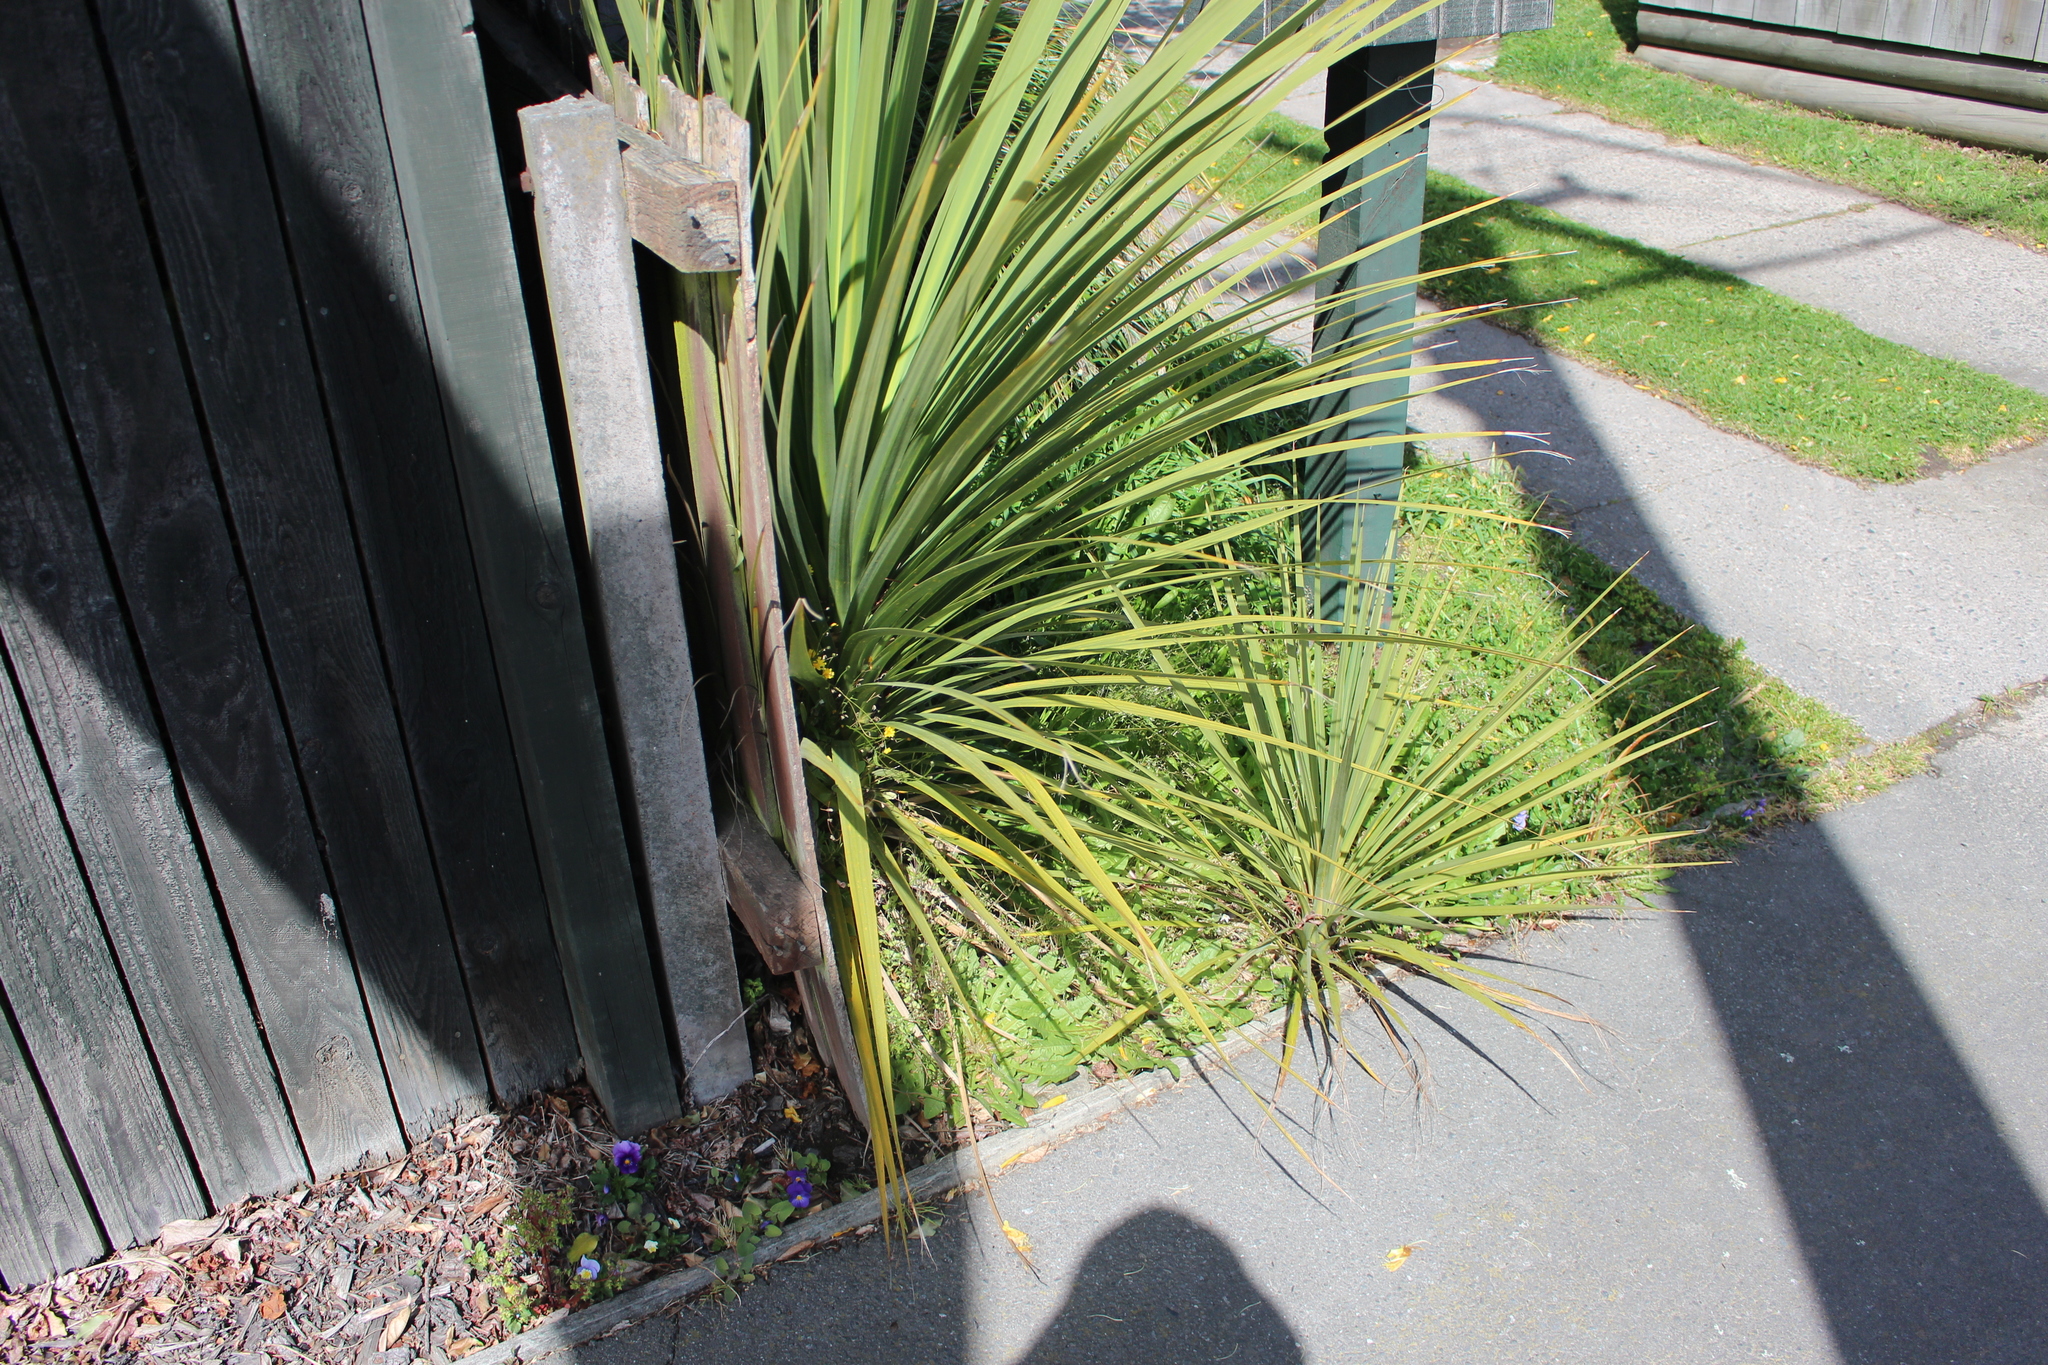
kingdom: Plantae
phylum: Tracheophyta
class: Liliopsida
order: Asparagales
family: Asparagaceae
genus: Cordyline
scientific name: Cordyline australis
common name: Cabbage-palm
